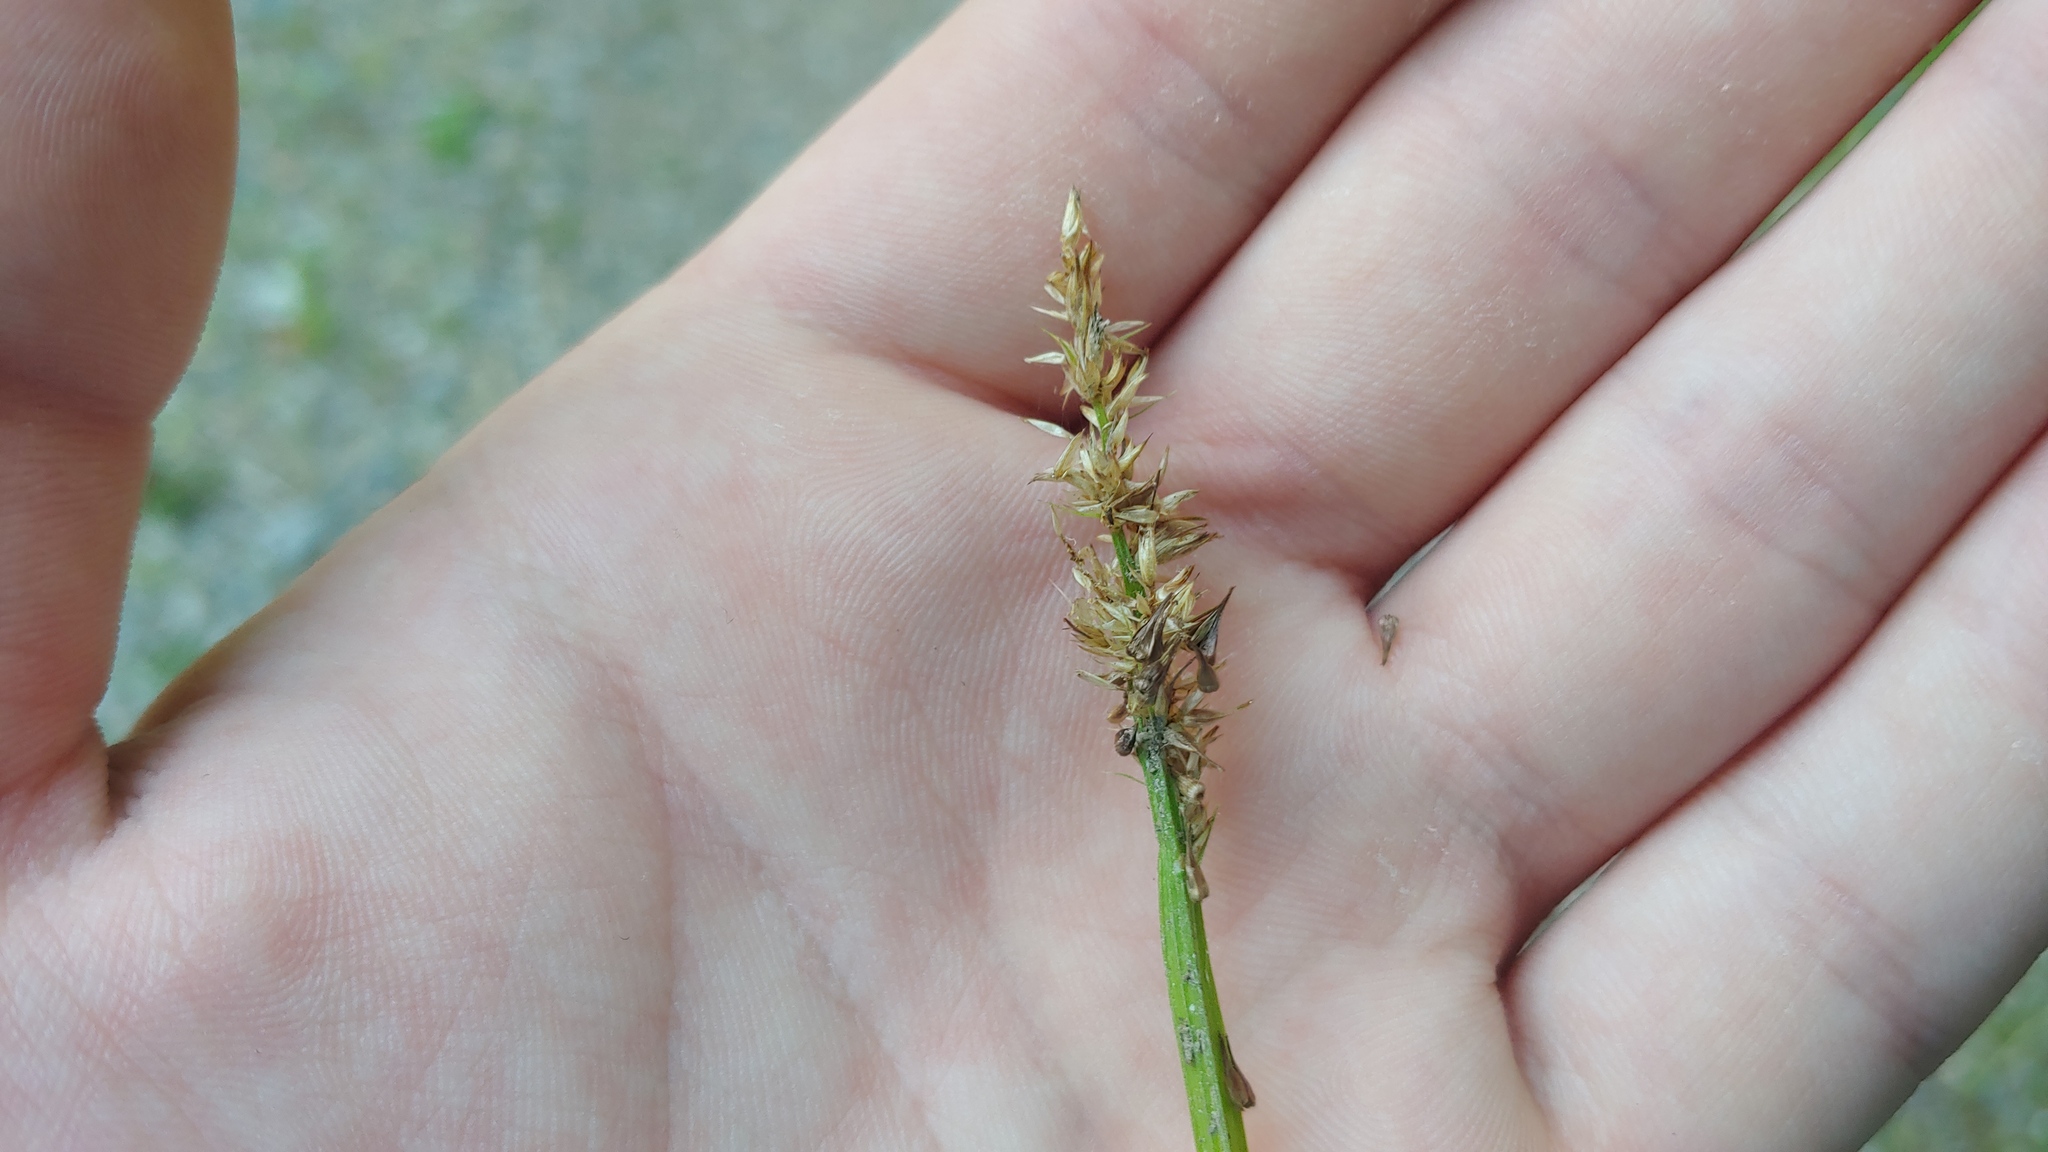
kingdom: Plantae
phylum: Tracheophyta
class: Liliopsida
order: Poales
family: Cyperaceae
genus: Carex
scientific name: Carex stipata
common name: Awl-fruited sedge
